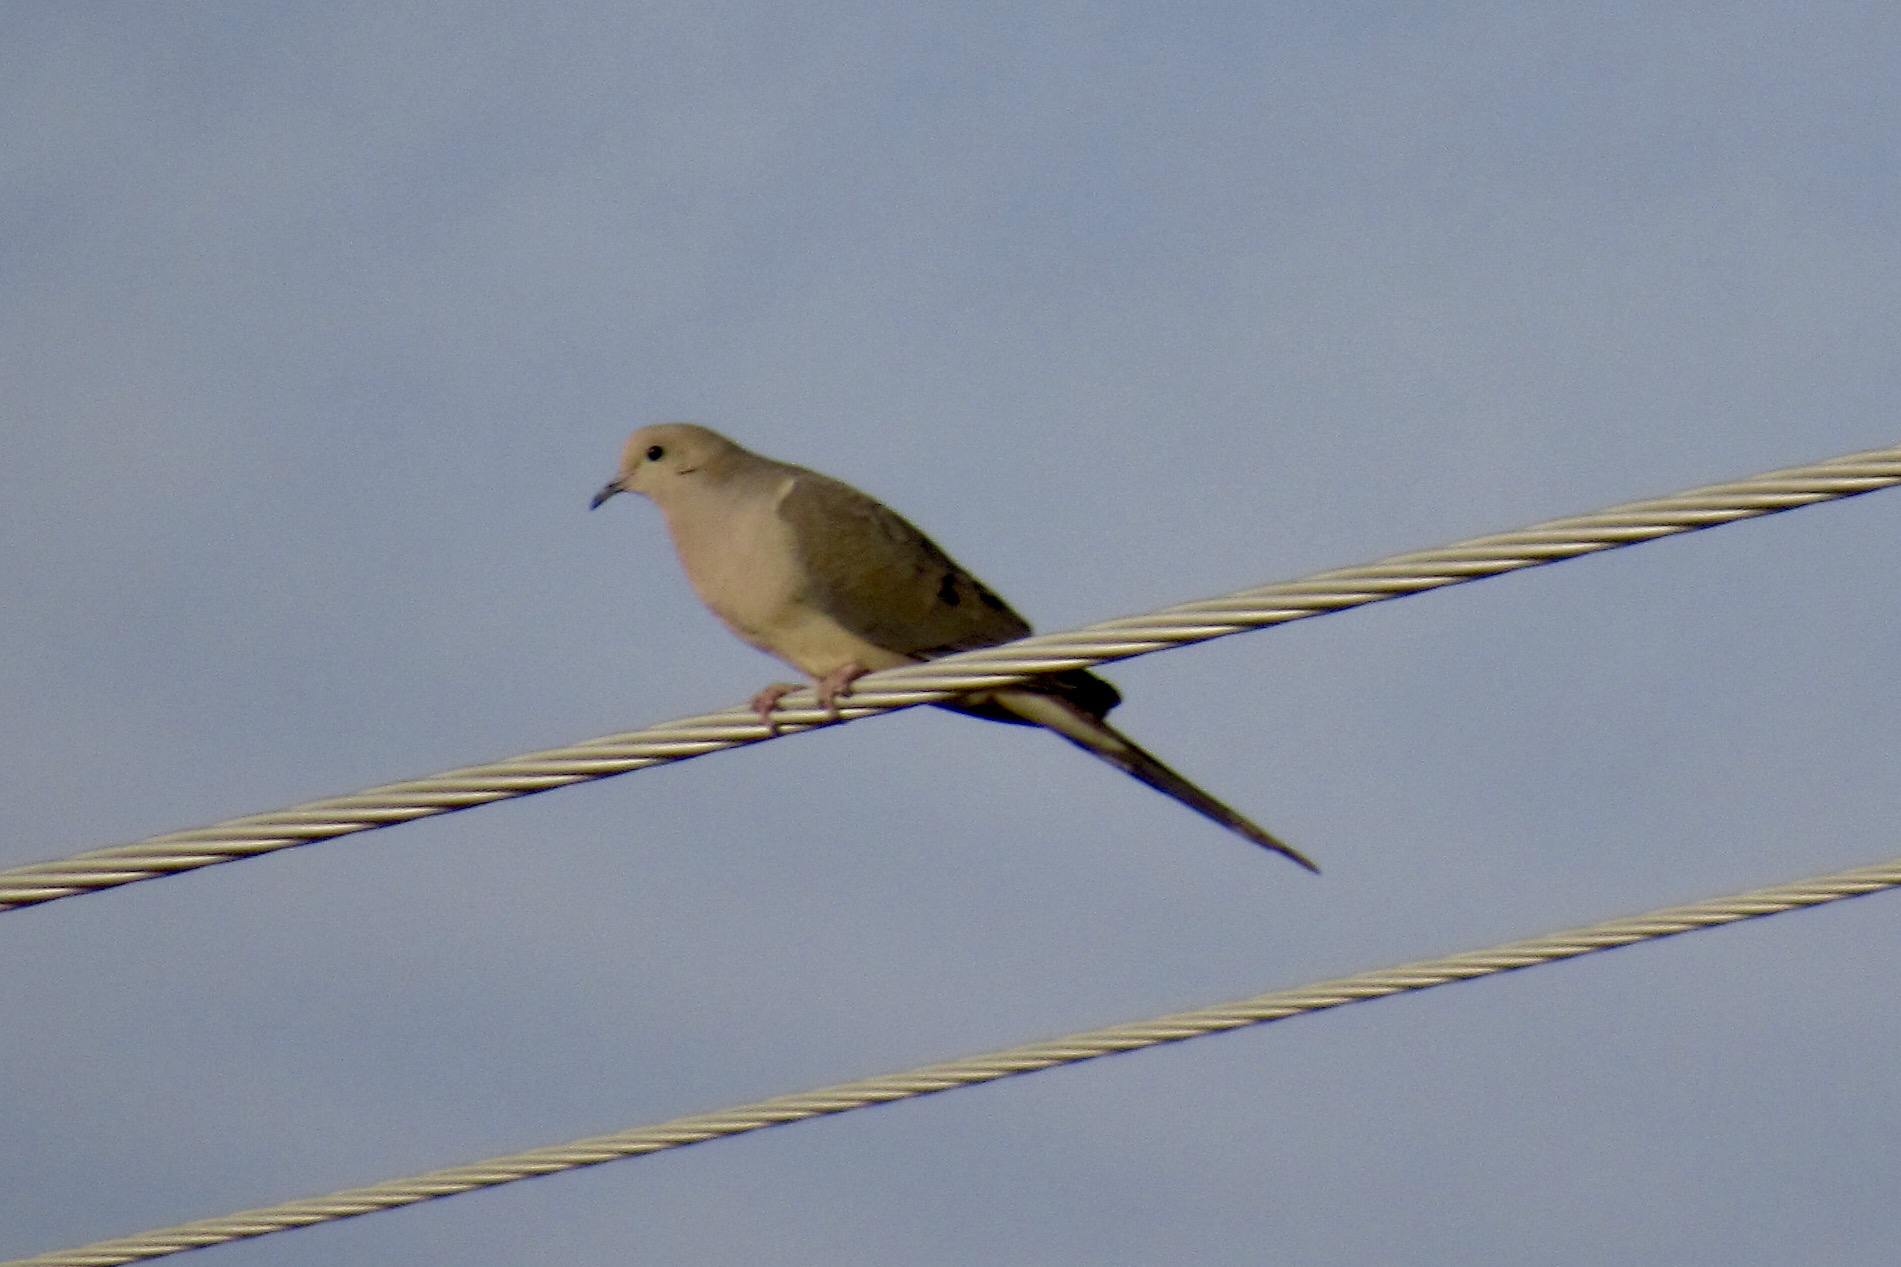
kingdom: Animalia
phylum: Chordata
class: Aves
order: Columbiformes
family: Columbidae
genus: Zenaida
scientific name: Zenaida macroura
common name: Mourning dove
